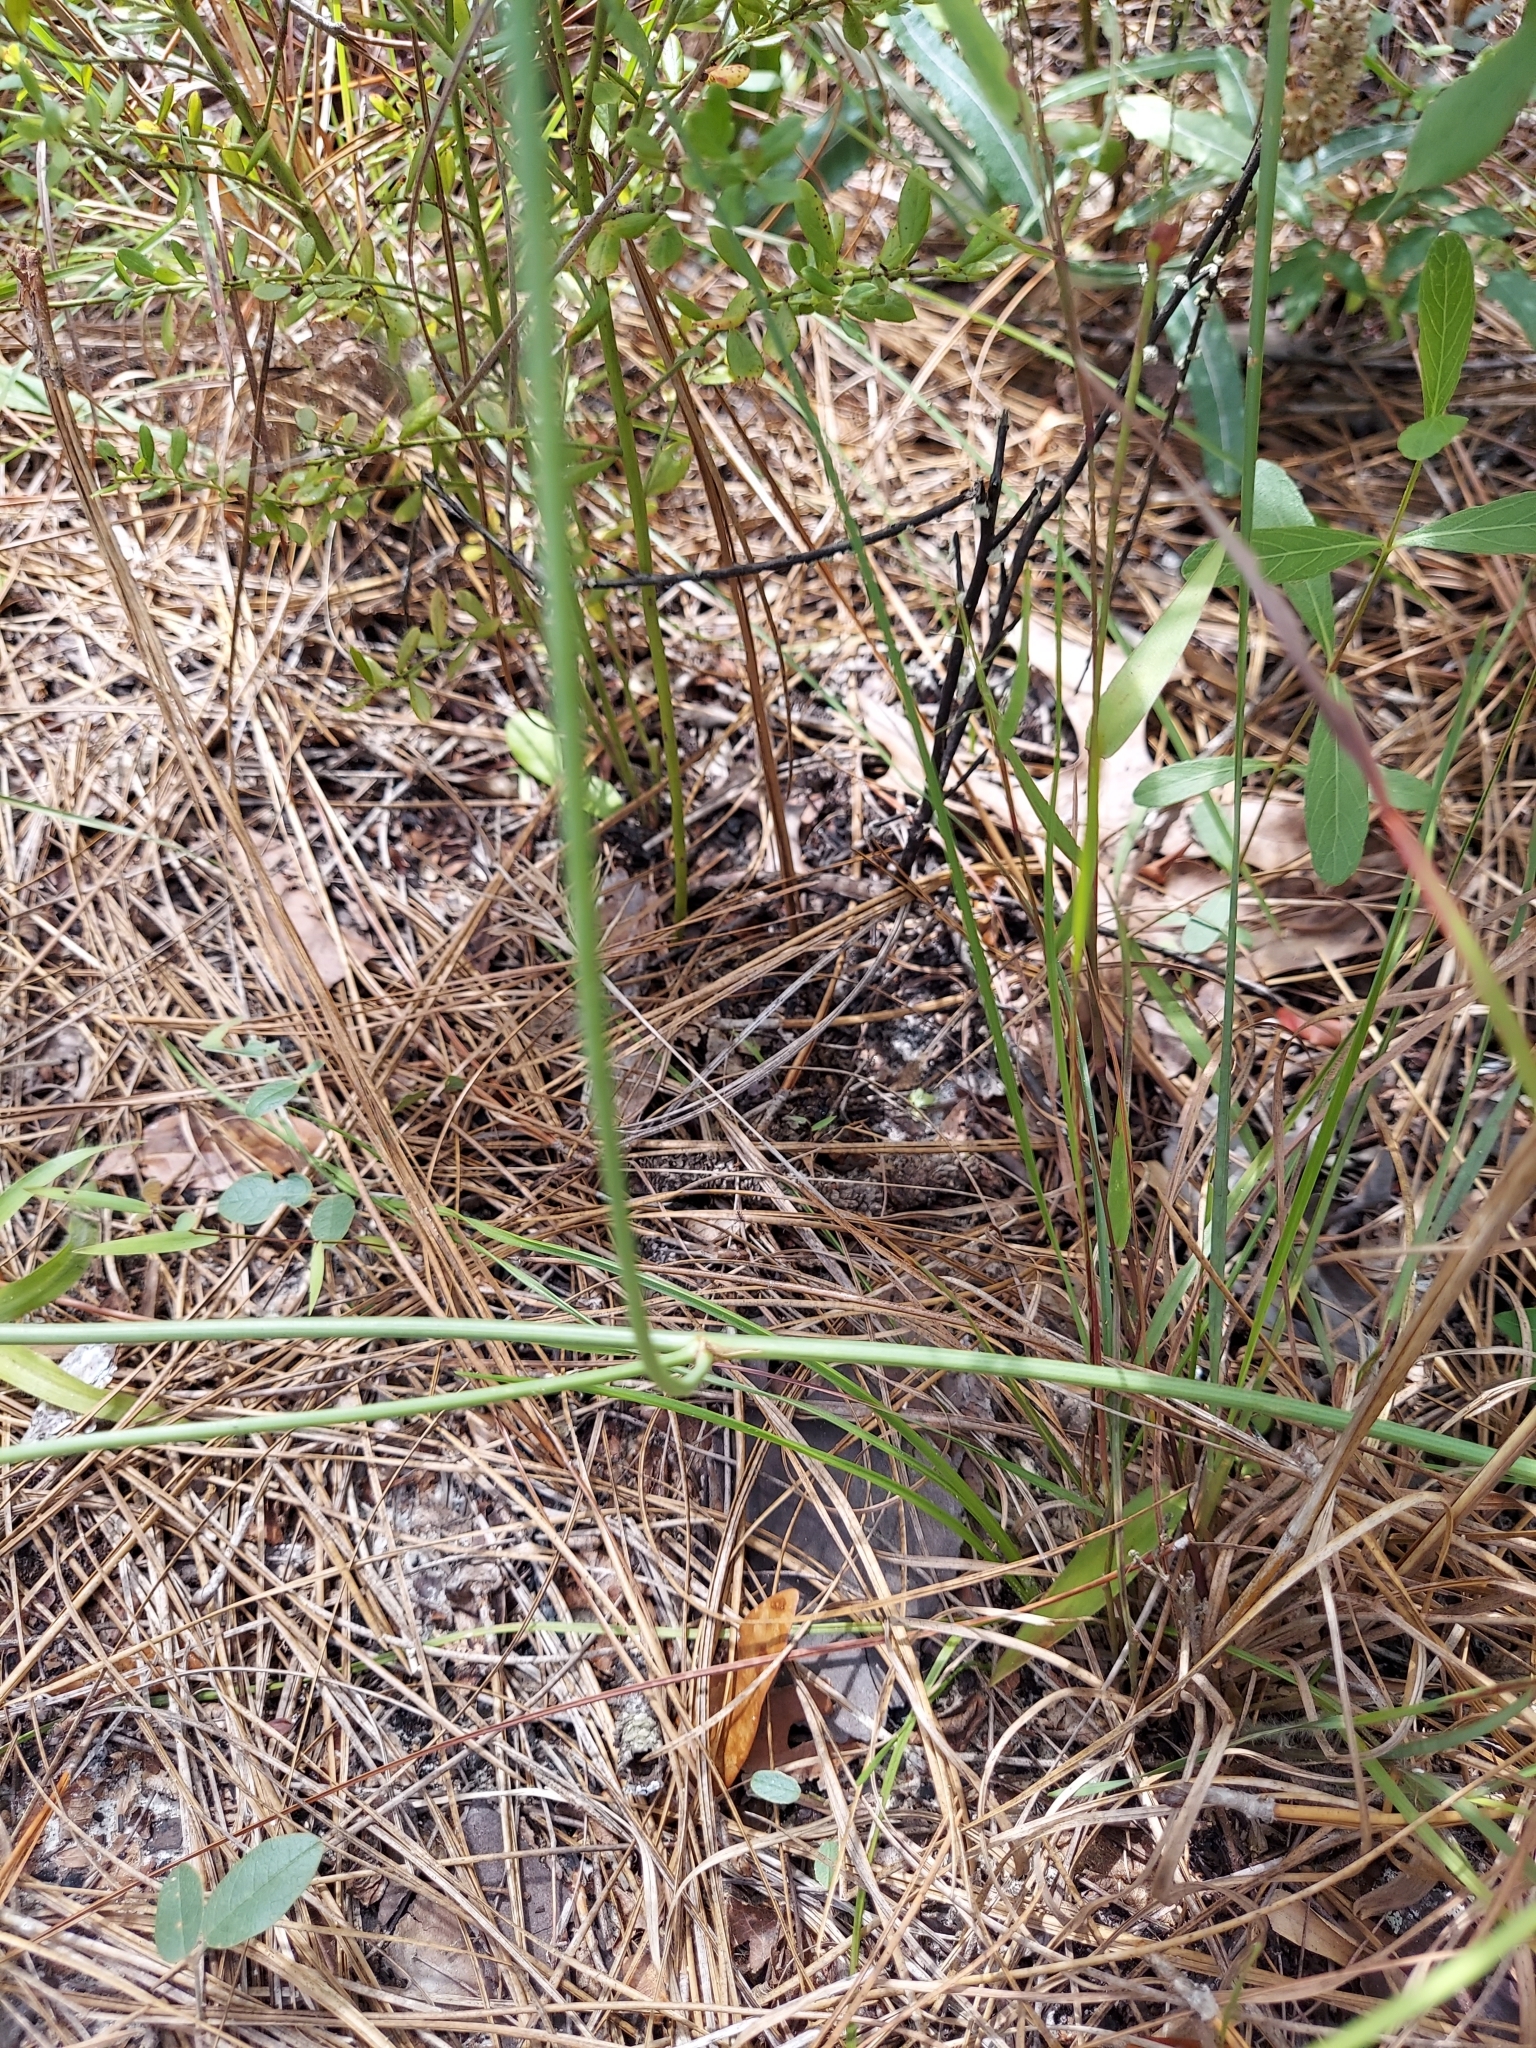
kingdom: Plantae
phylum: Tracheophyta
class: Magnoliopsida
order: Asterales
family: Asteraceae
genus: Lygodesmia
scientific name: Lygodesmia aphylla
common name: Rose-rush
